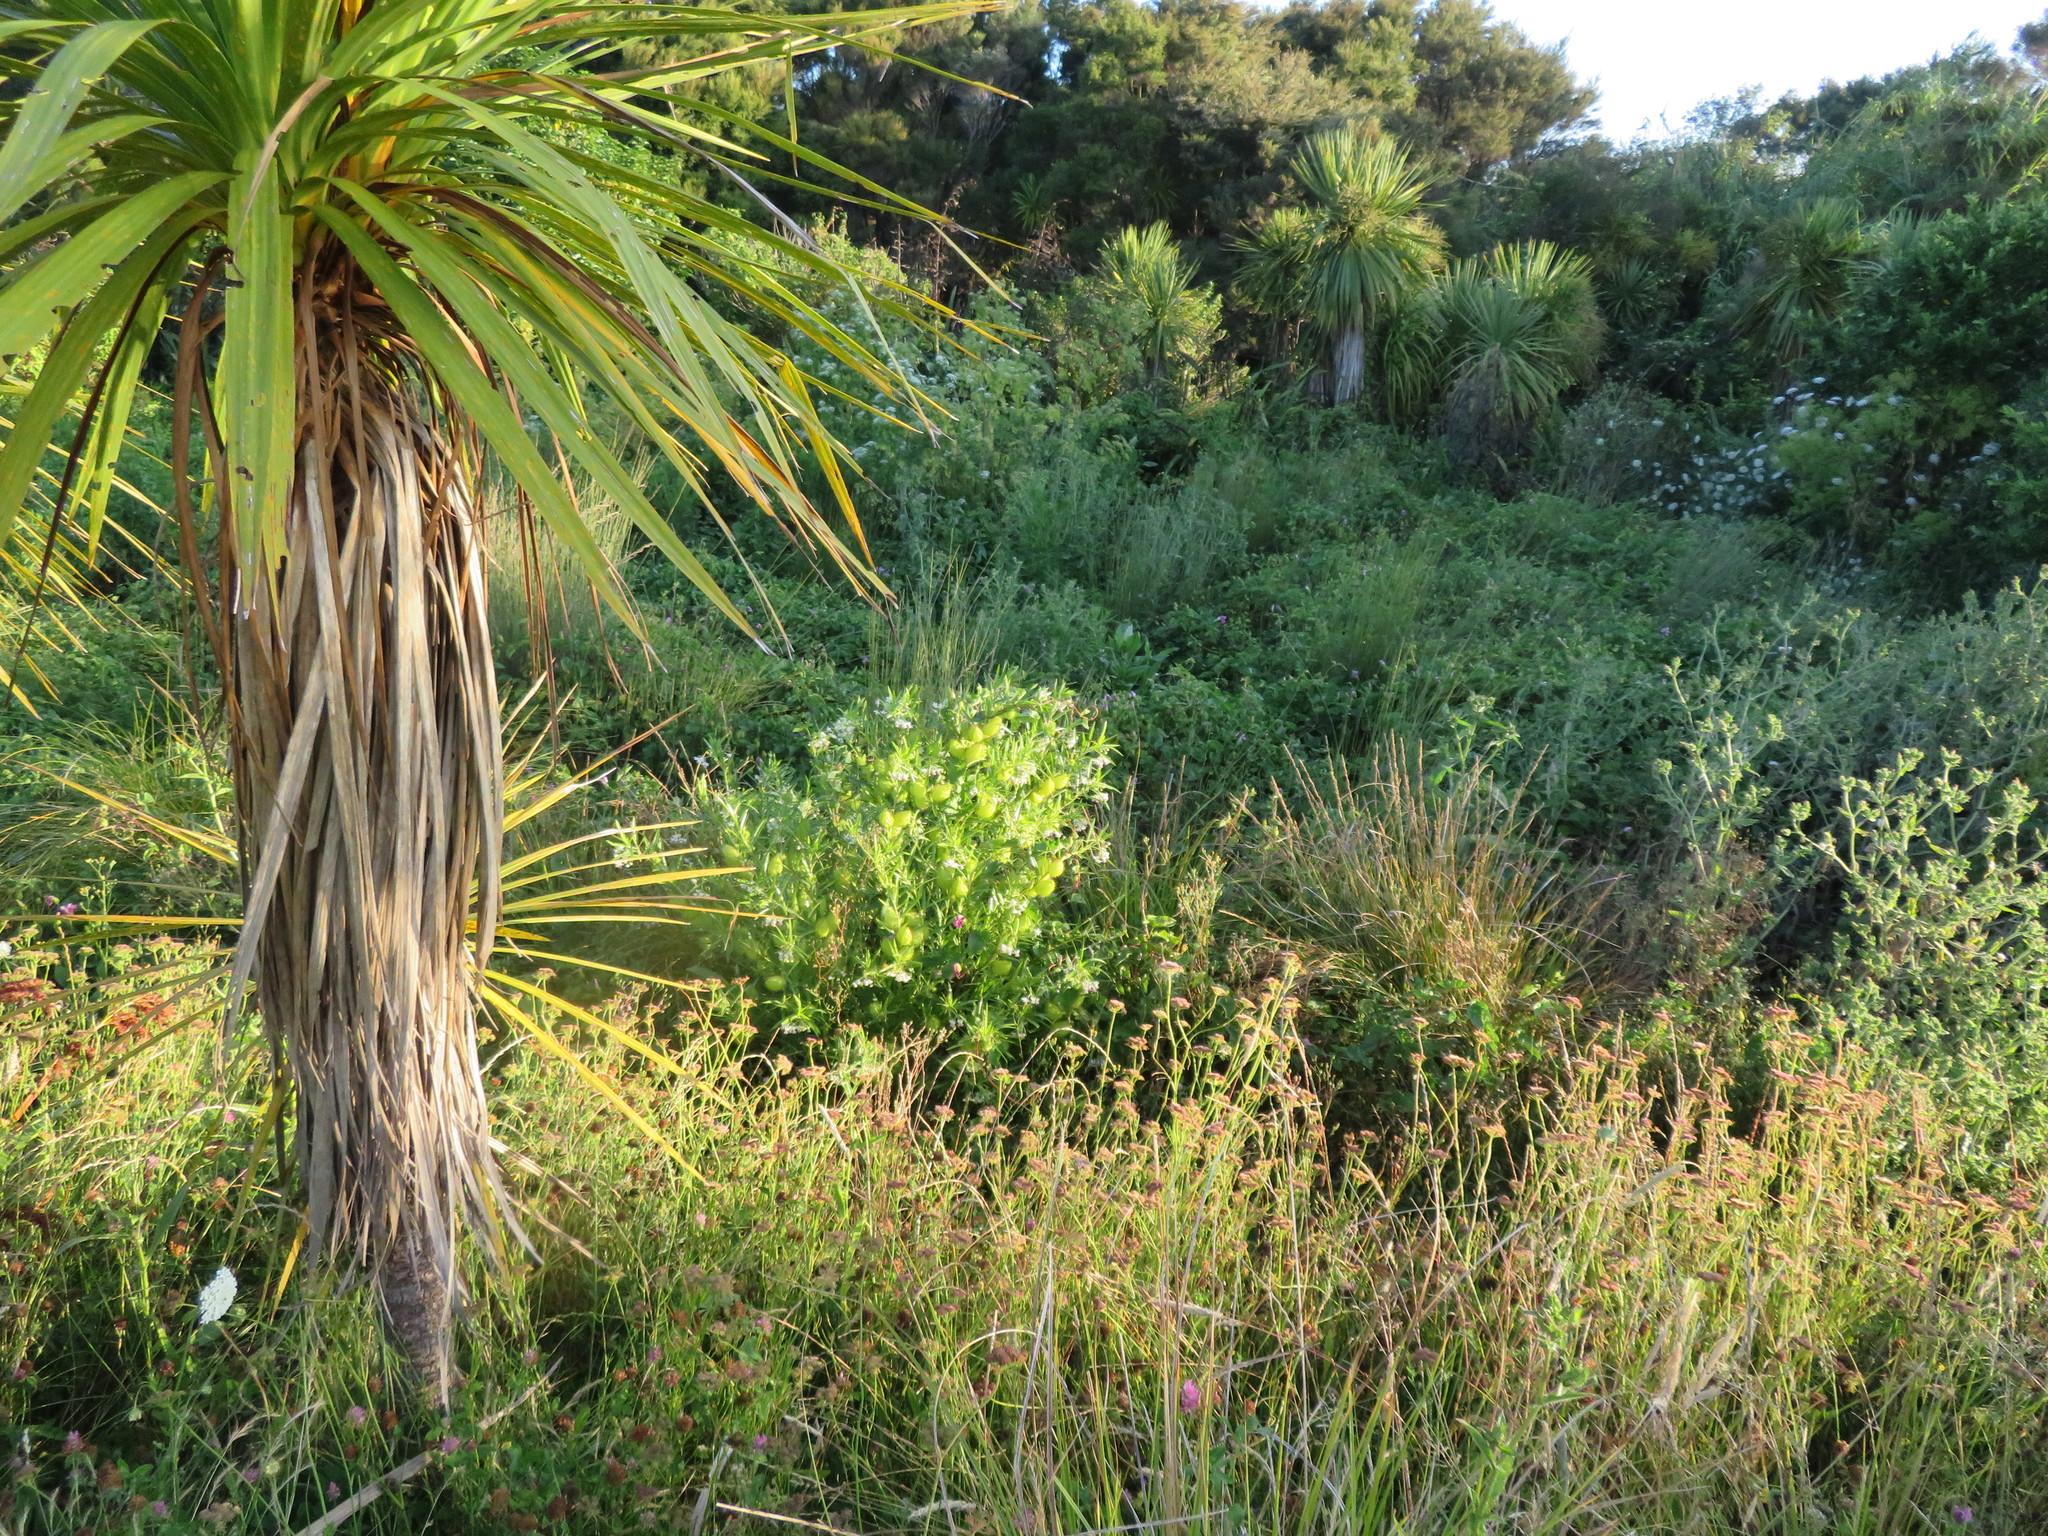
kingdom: Plantae
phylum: Tracheophyta
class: Magnoliopsida
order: Gentianales
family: Apocynaceae
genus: Gomphocarpus
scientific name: Gomphocarpus fruticosus
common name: Milkweed
